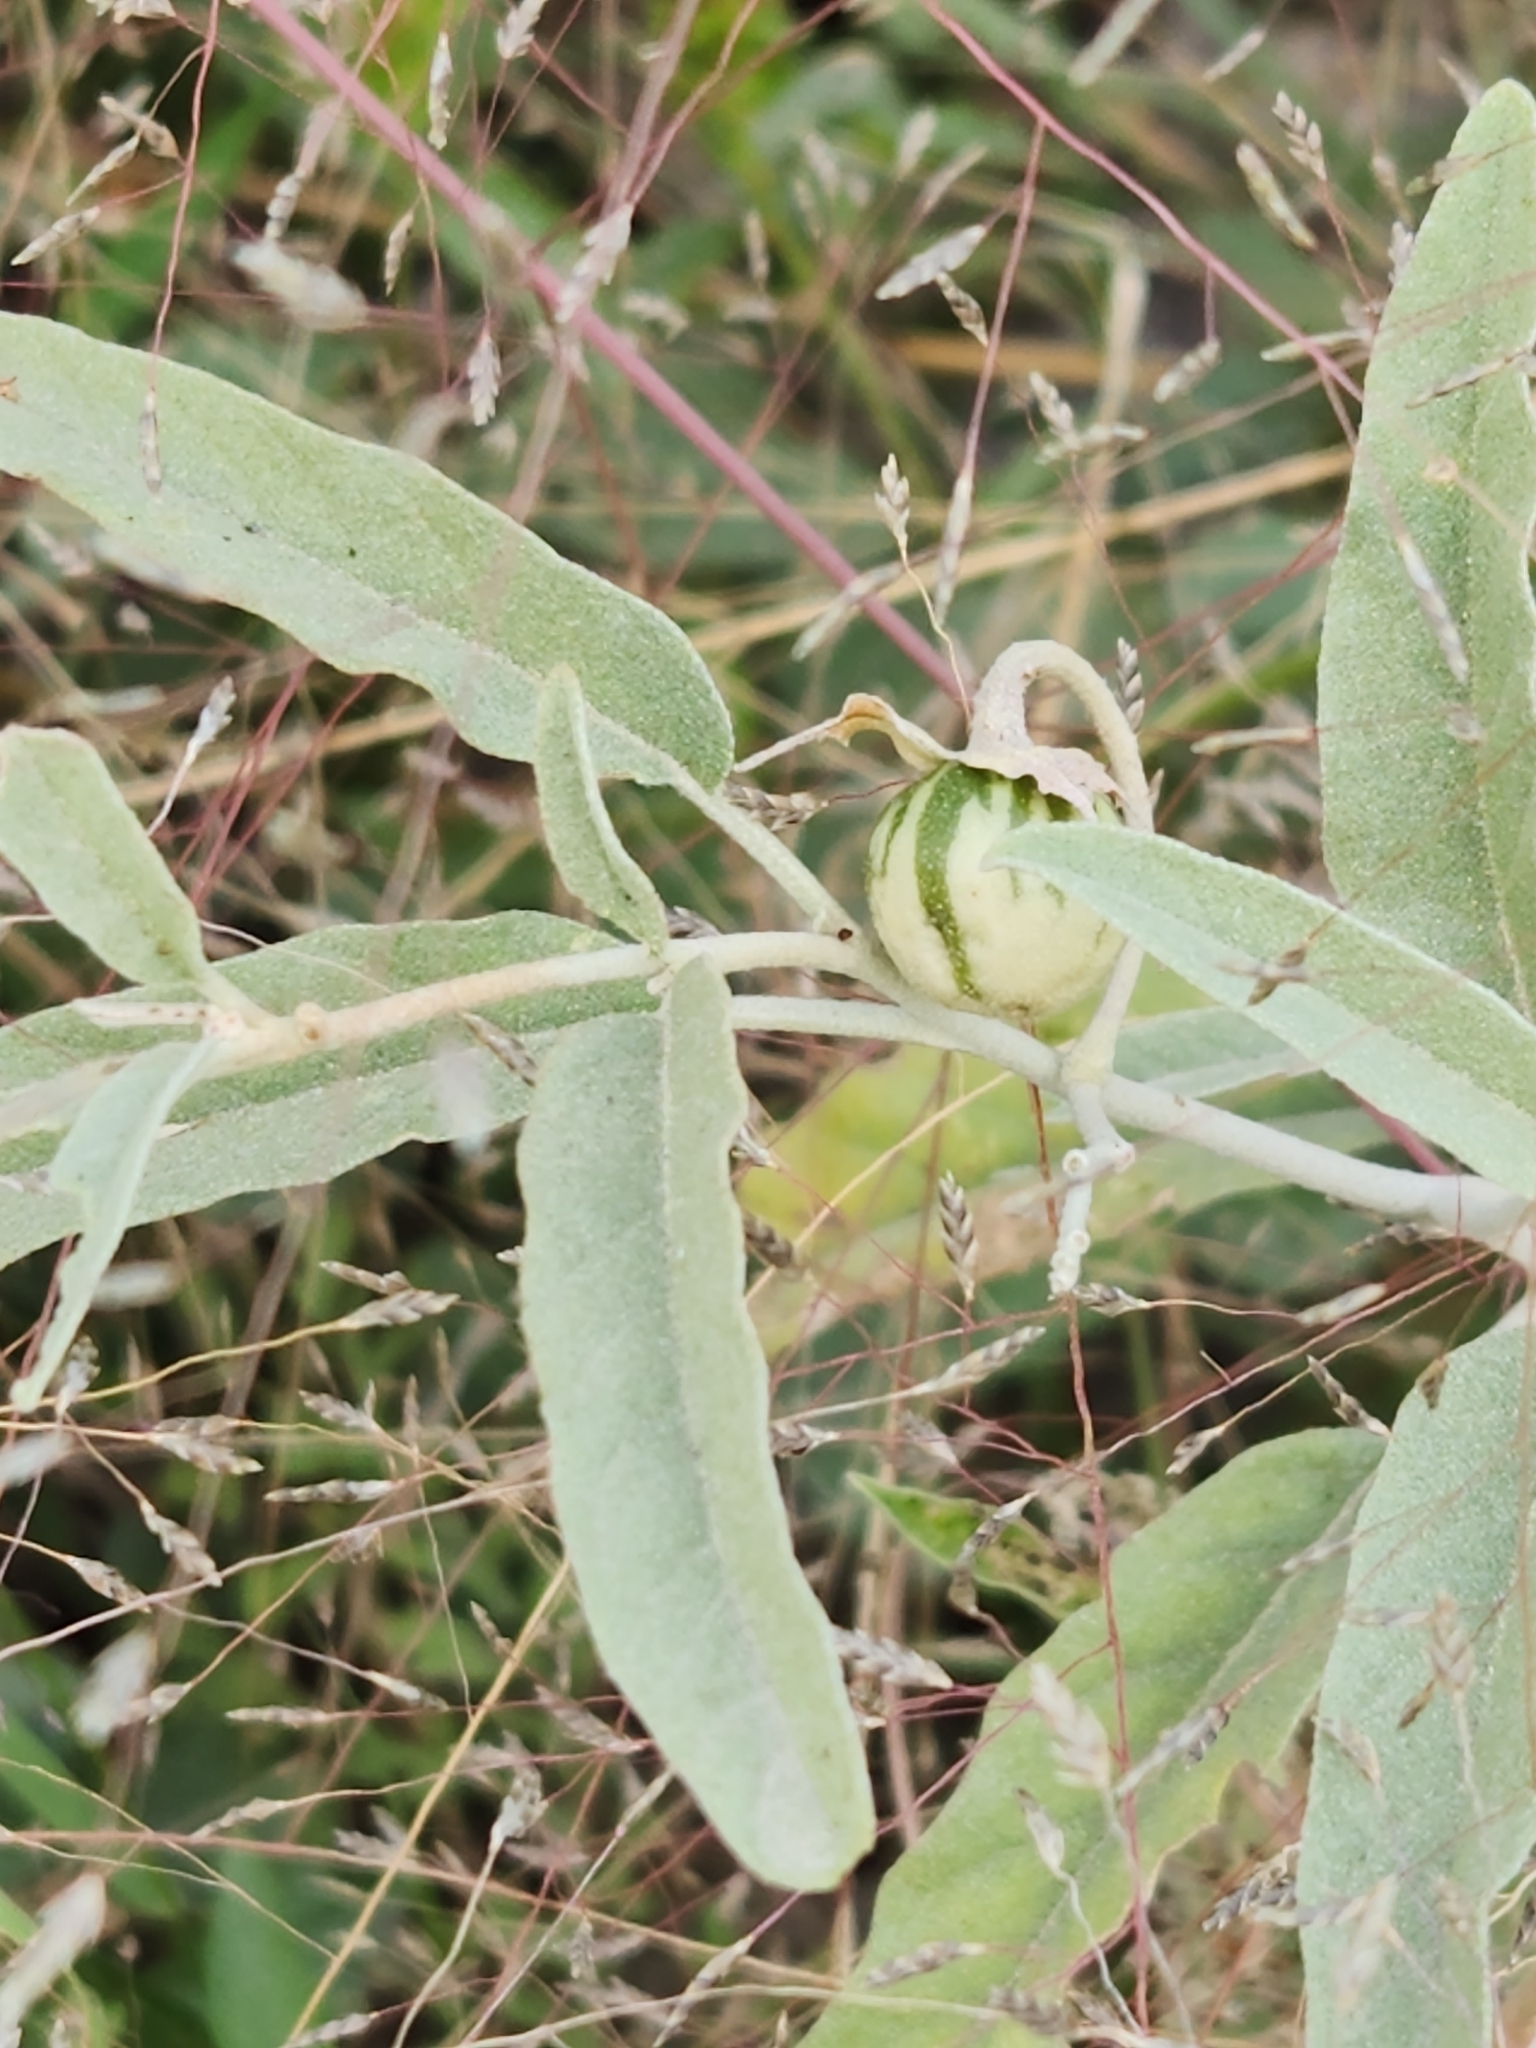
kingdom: Plantae
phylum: Tracheophyta
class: Magnoliopsida
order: Solanales
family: Solanaceae
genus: Solanum
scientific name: Solanum elaeagnifolium
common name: Silverleaf nightshade
